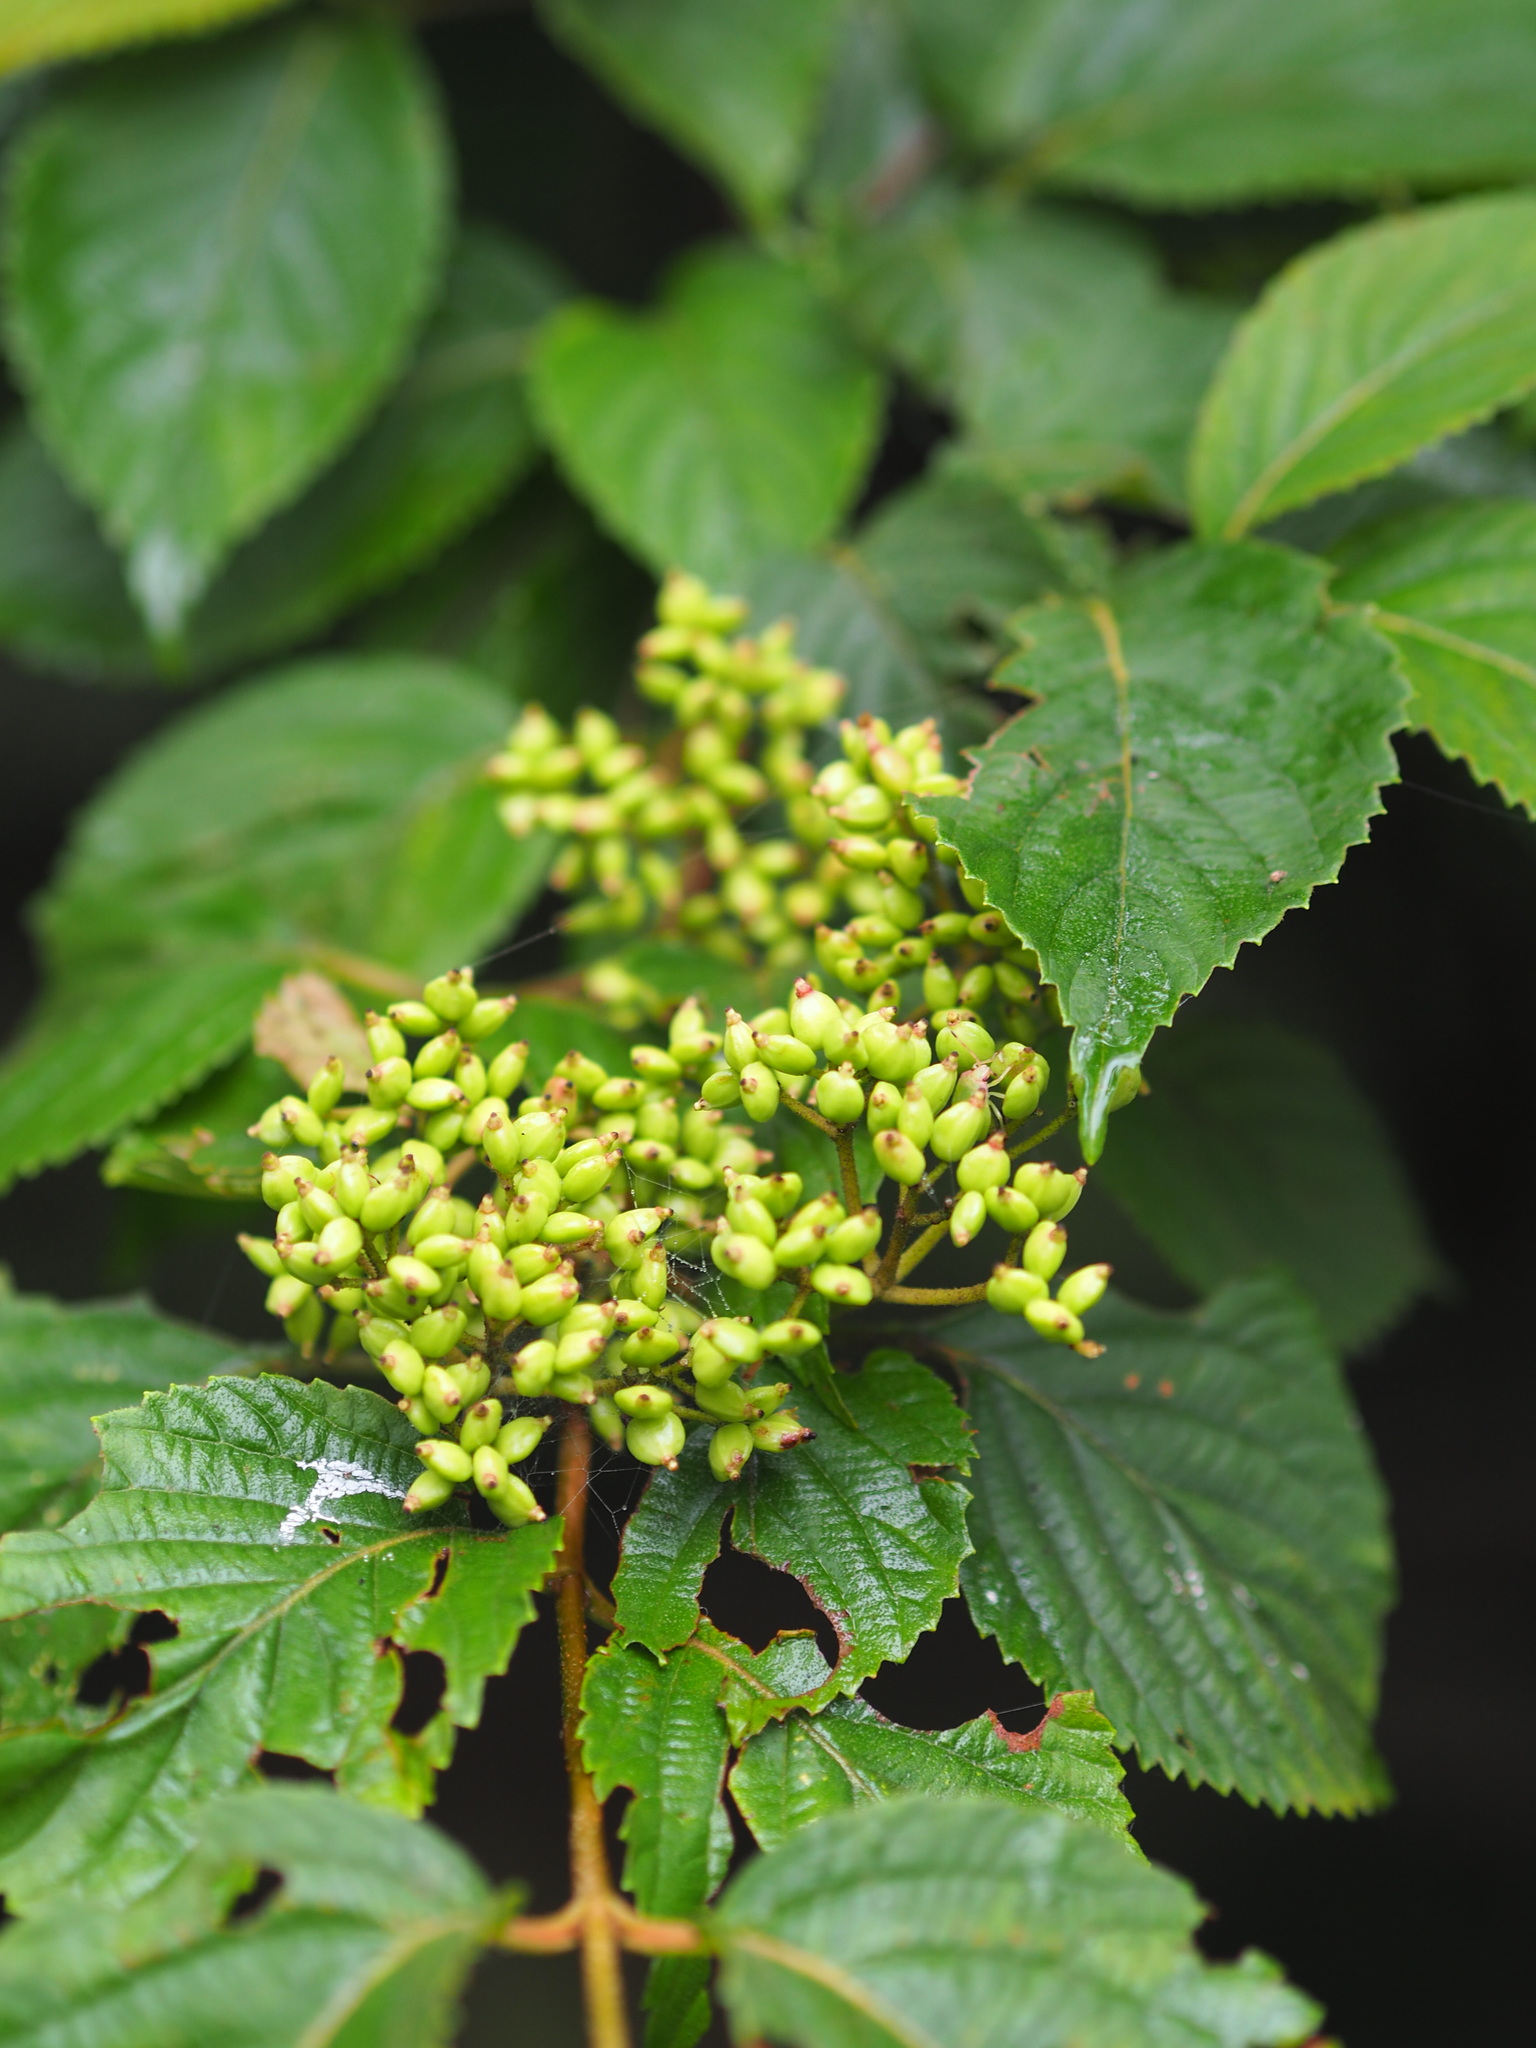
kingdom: Plantae
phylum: Tracheophyta
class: Magnoliopsida
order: Dipsacales
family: Viburnaceae
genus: Viburnum
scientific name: Viburnum plicatum
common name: Japanese snowball
